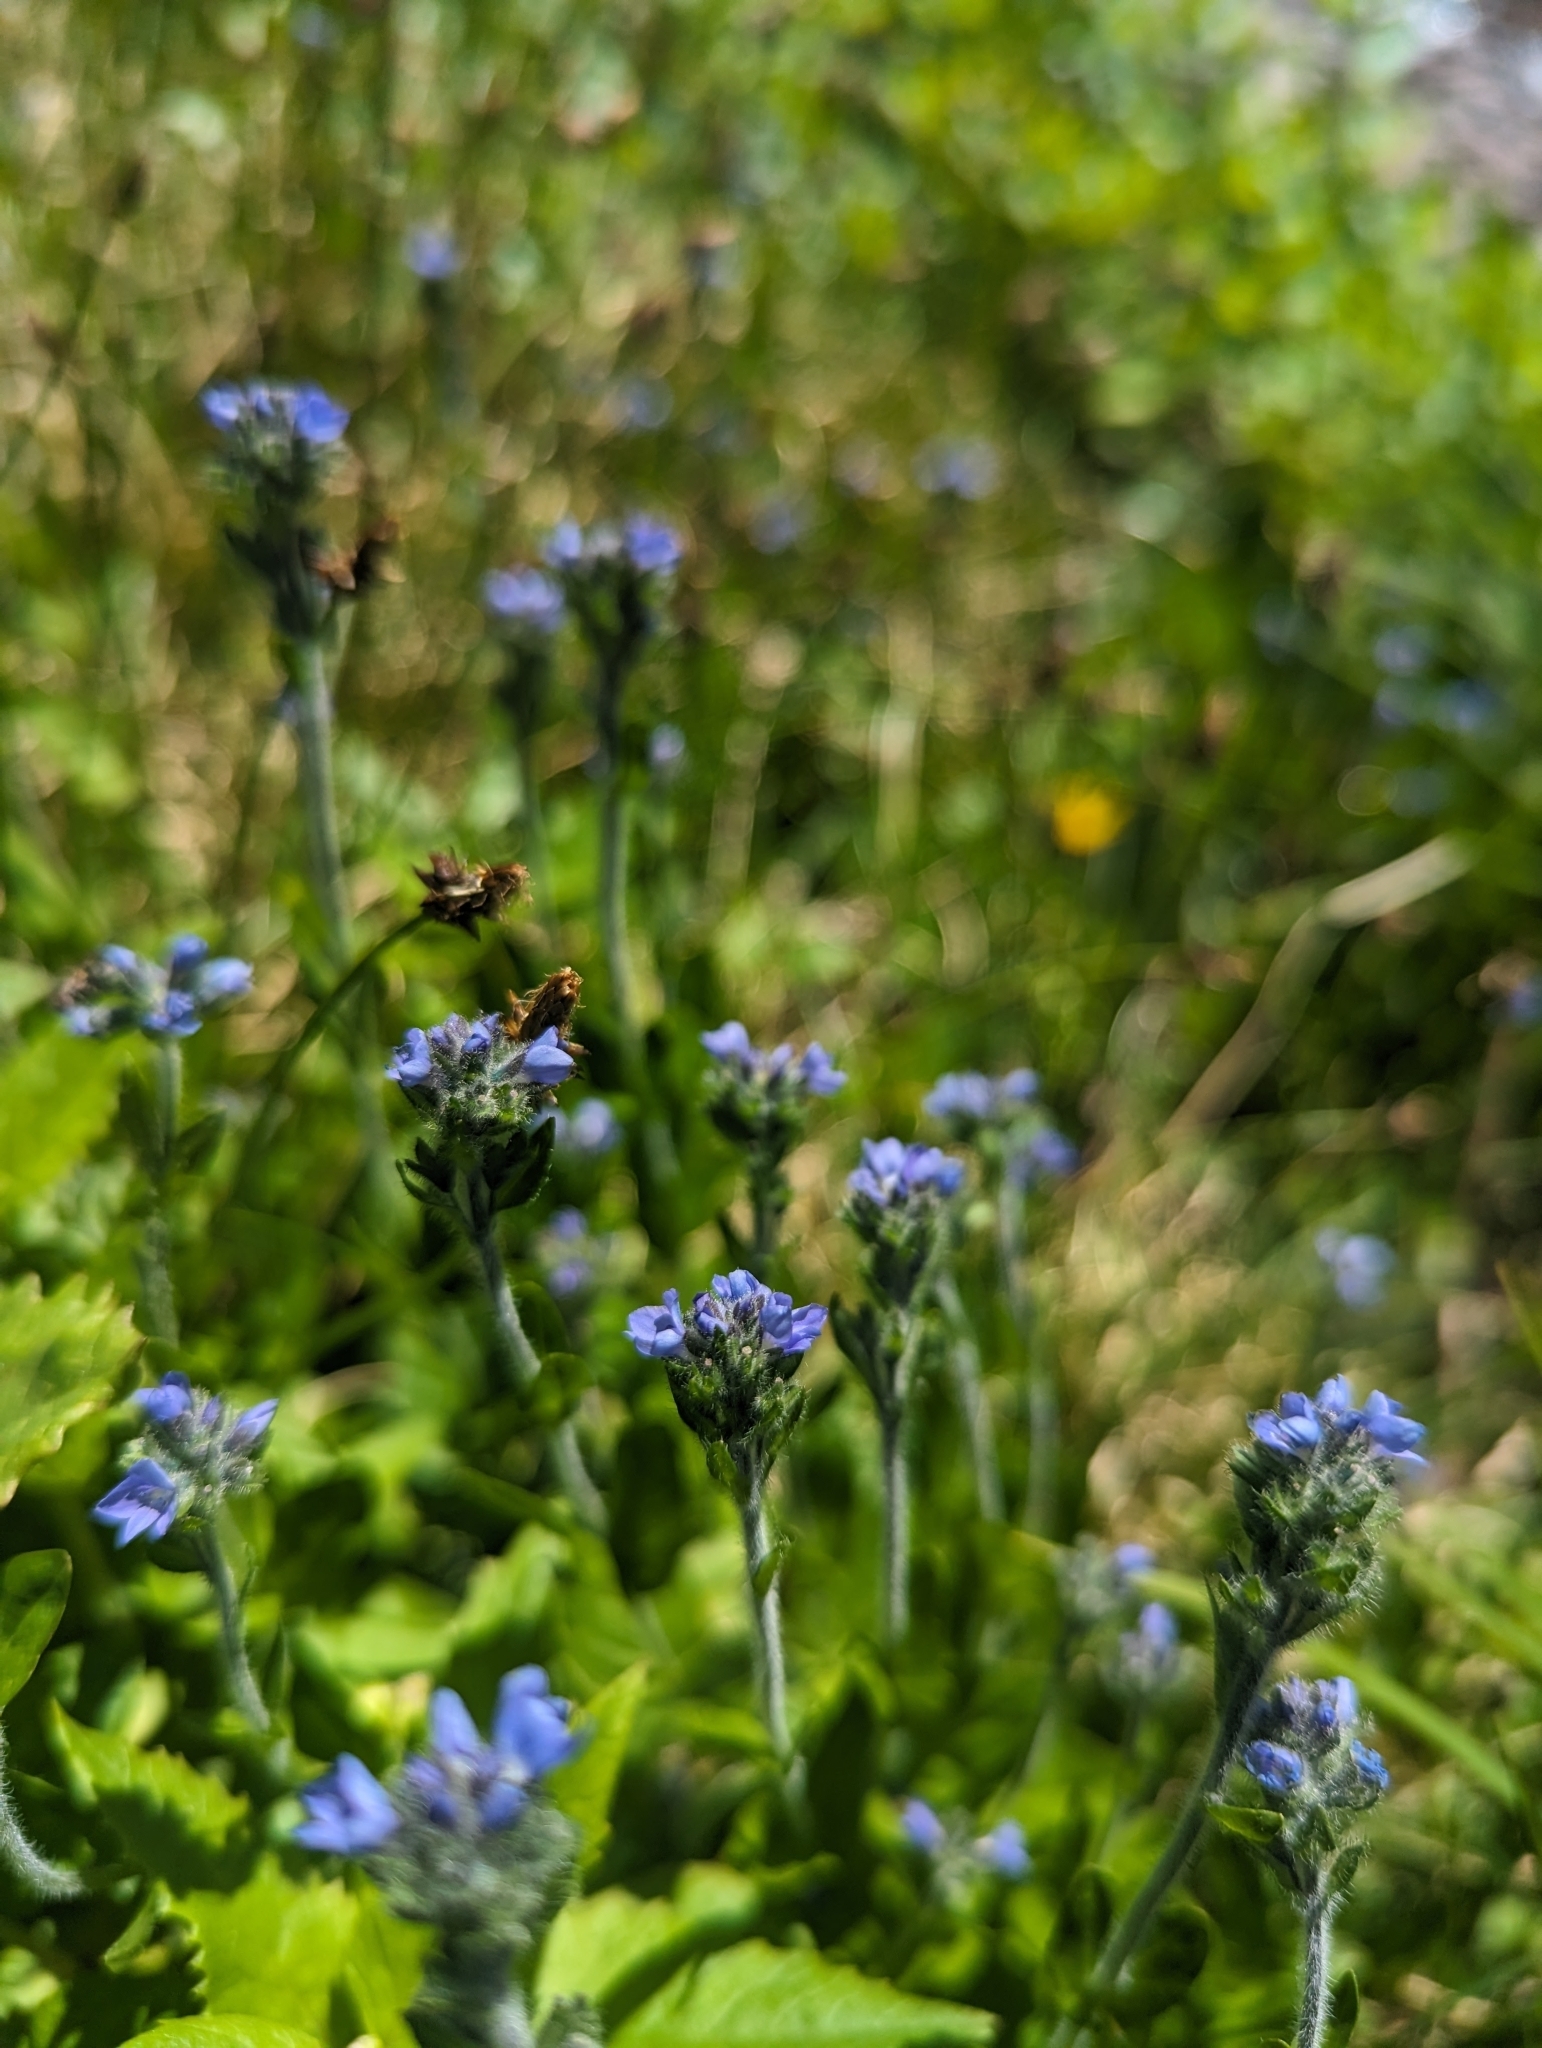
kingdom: Plantae
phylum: Tracheophyta
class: Magnoliopsida
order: Lamiales
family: Plantaginaceae
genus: Veronica
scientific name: Veronica wormskjoldii
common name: American alpine speedwell
